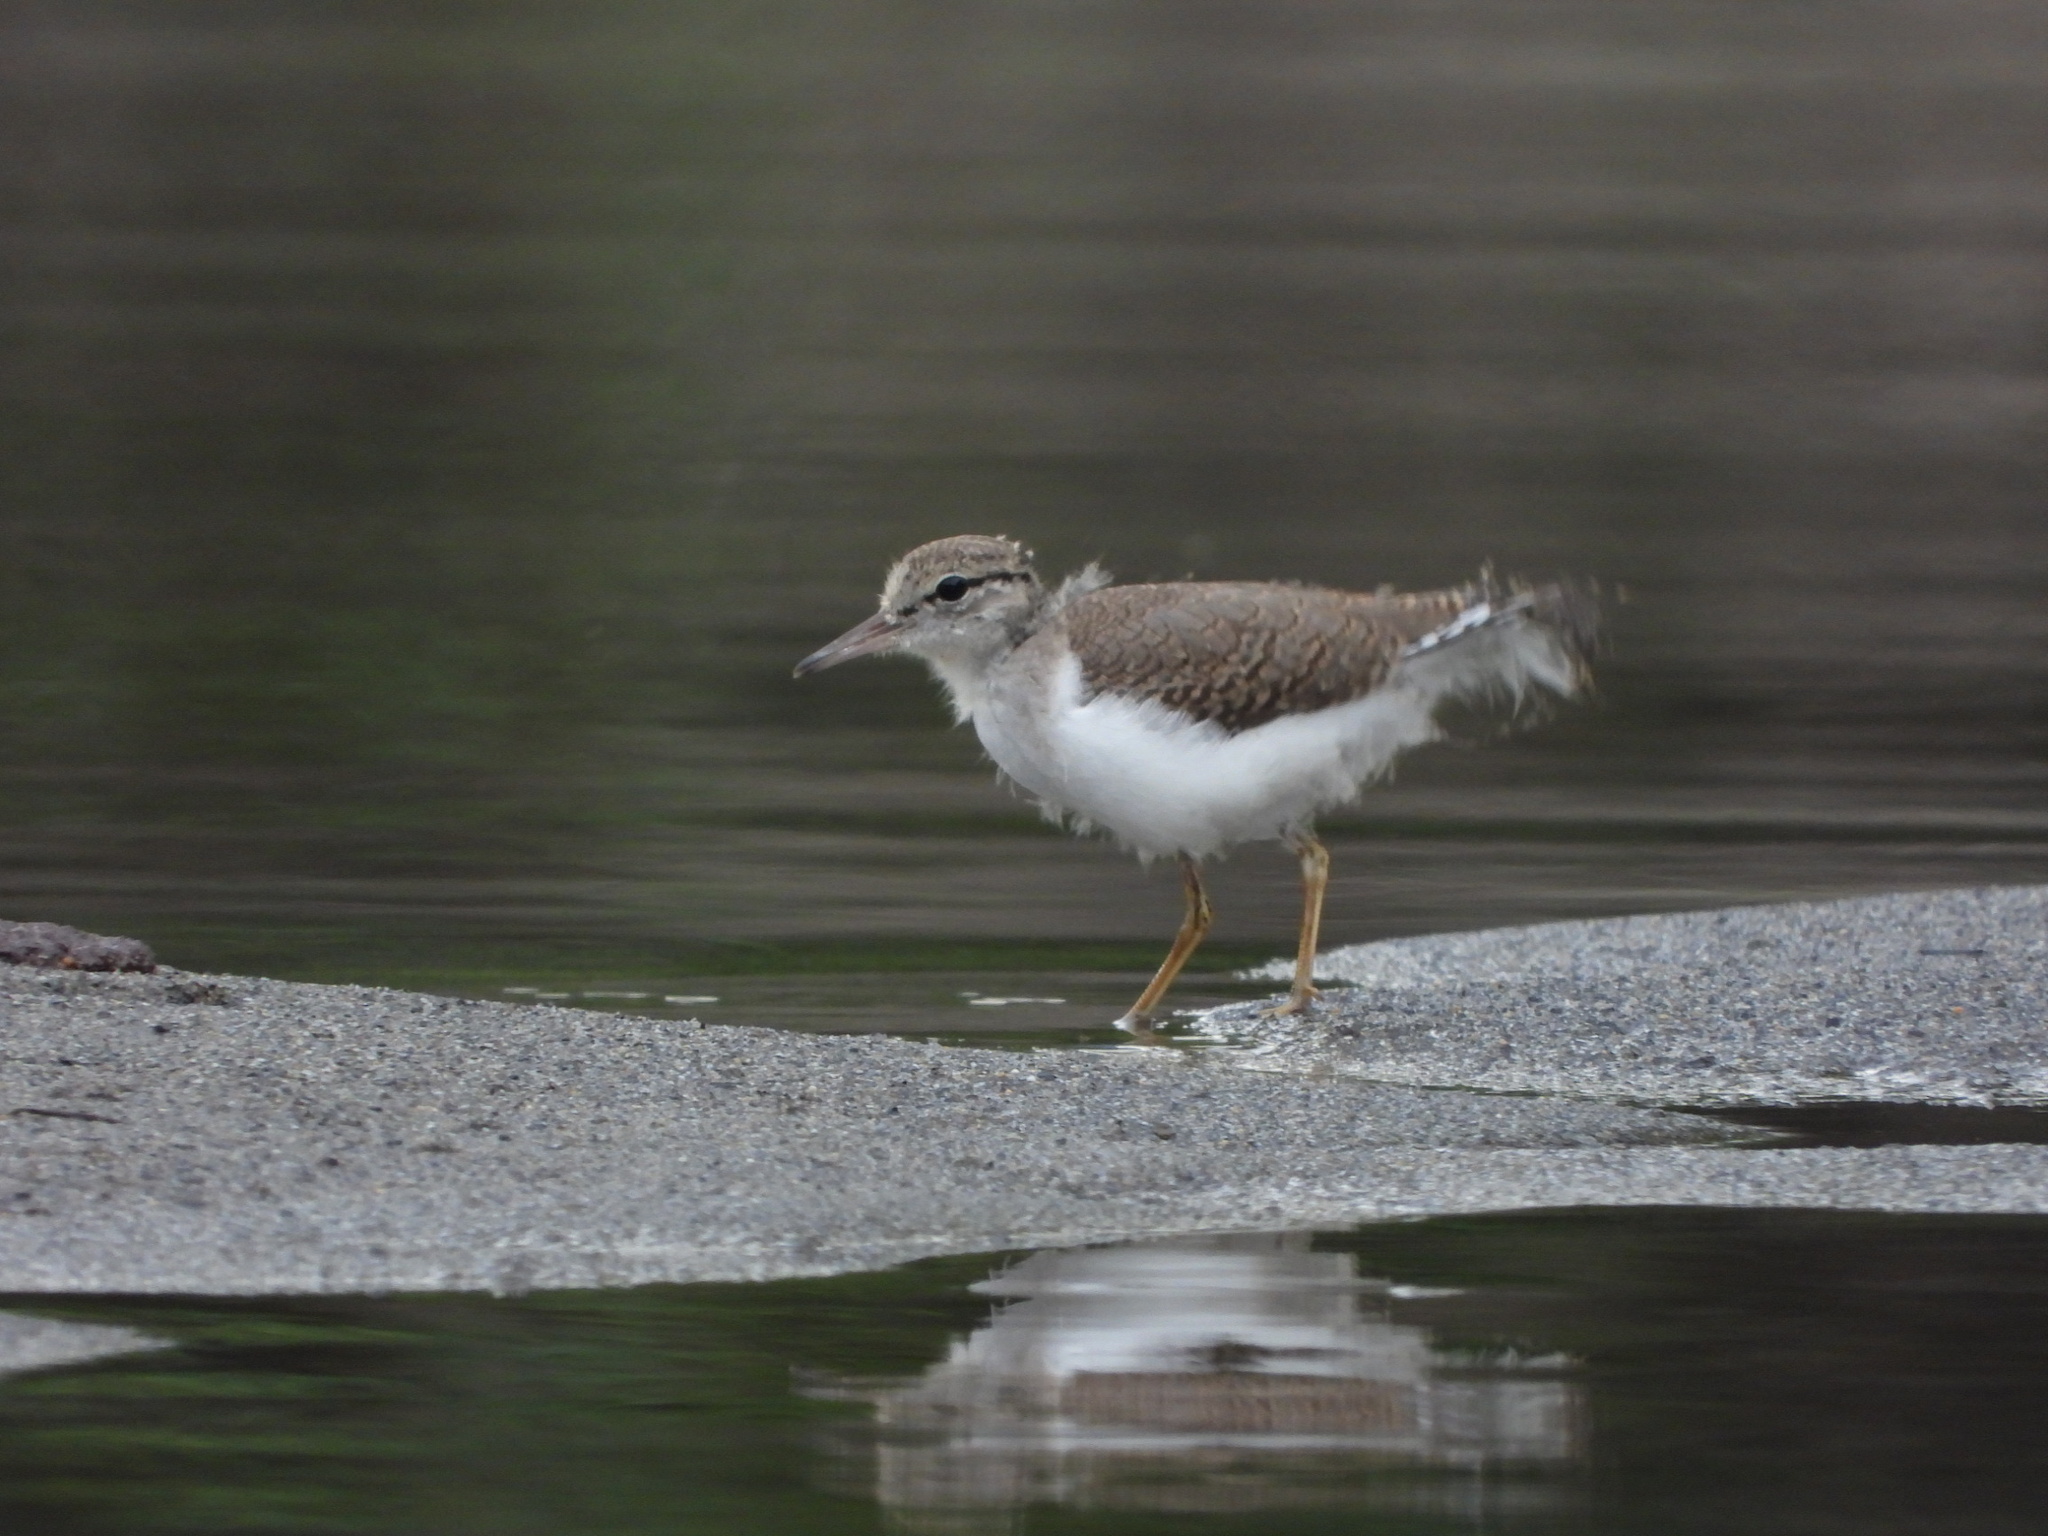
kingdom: Animalia
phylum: Chordata
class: Aves
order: Charadriiformes
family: Scolopacidae
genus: Actitis
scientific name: Actitis macularius
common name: Spotted sandpiper
